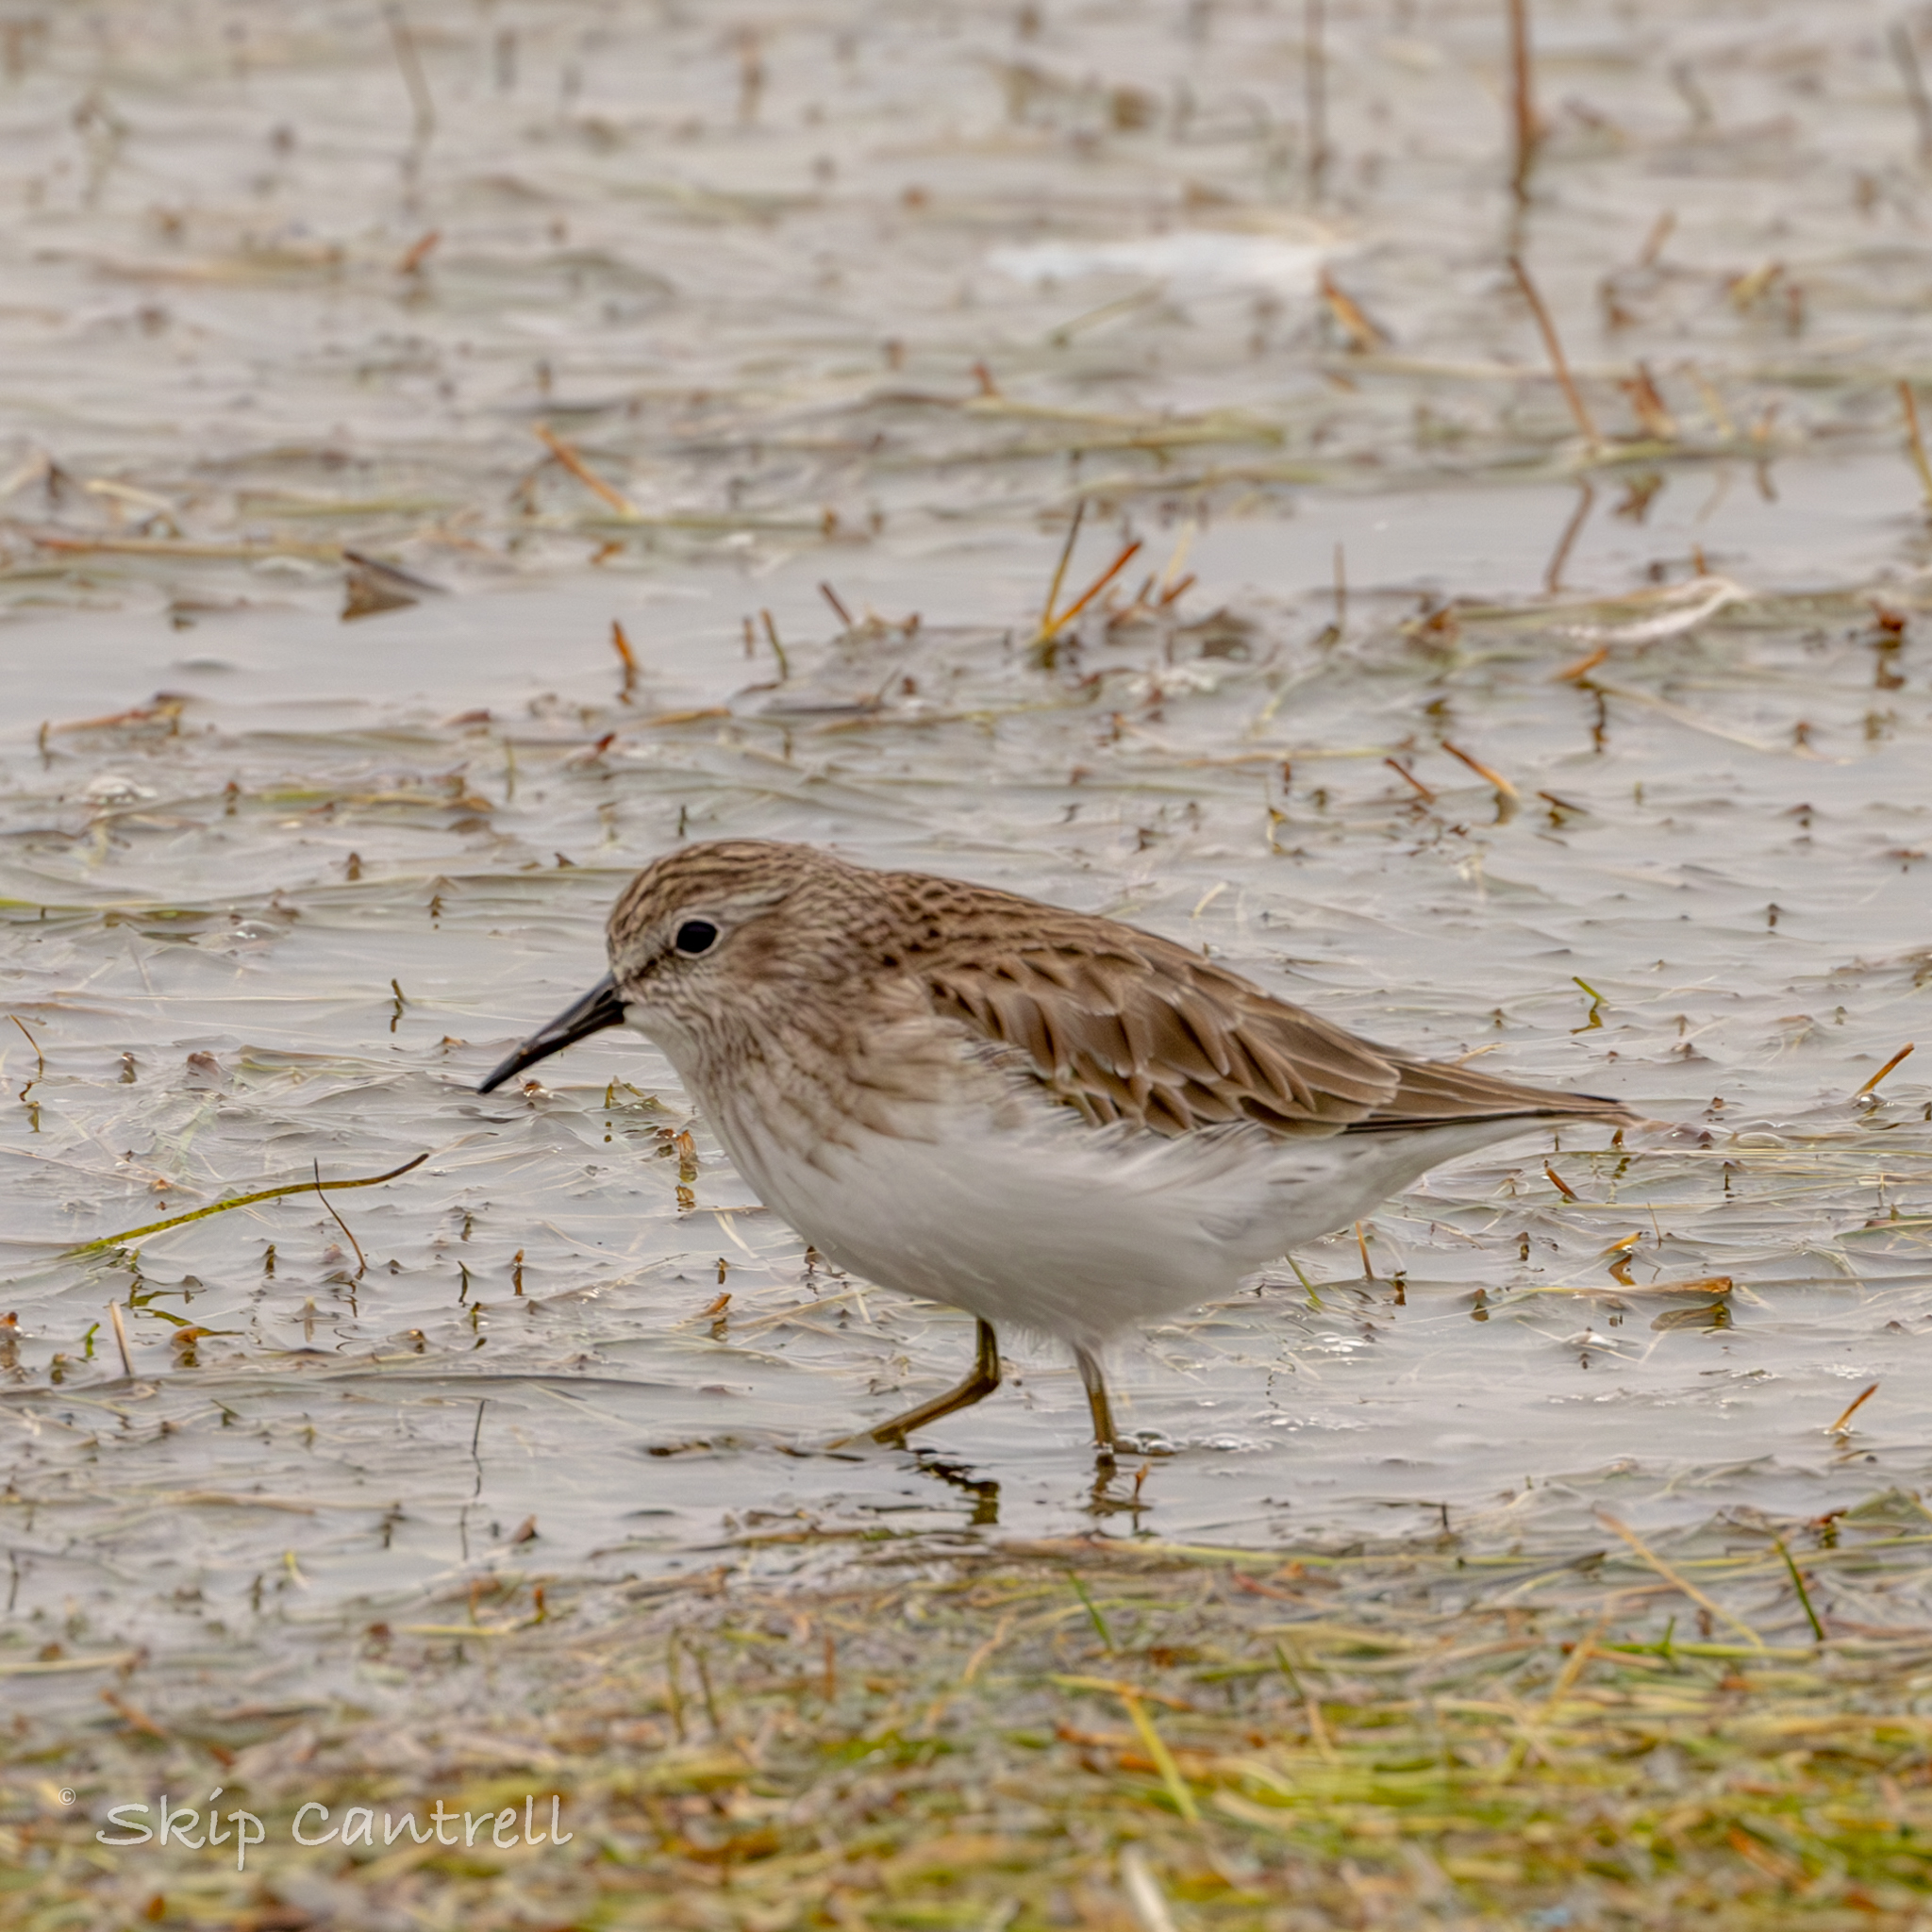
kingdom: Animalia
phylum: Chordata
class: Aves
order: Charadriiformes
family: Scolopacidae
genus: Calidris
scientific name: Calidris minutilla
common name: Least sandpiper
